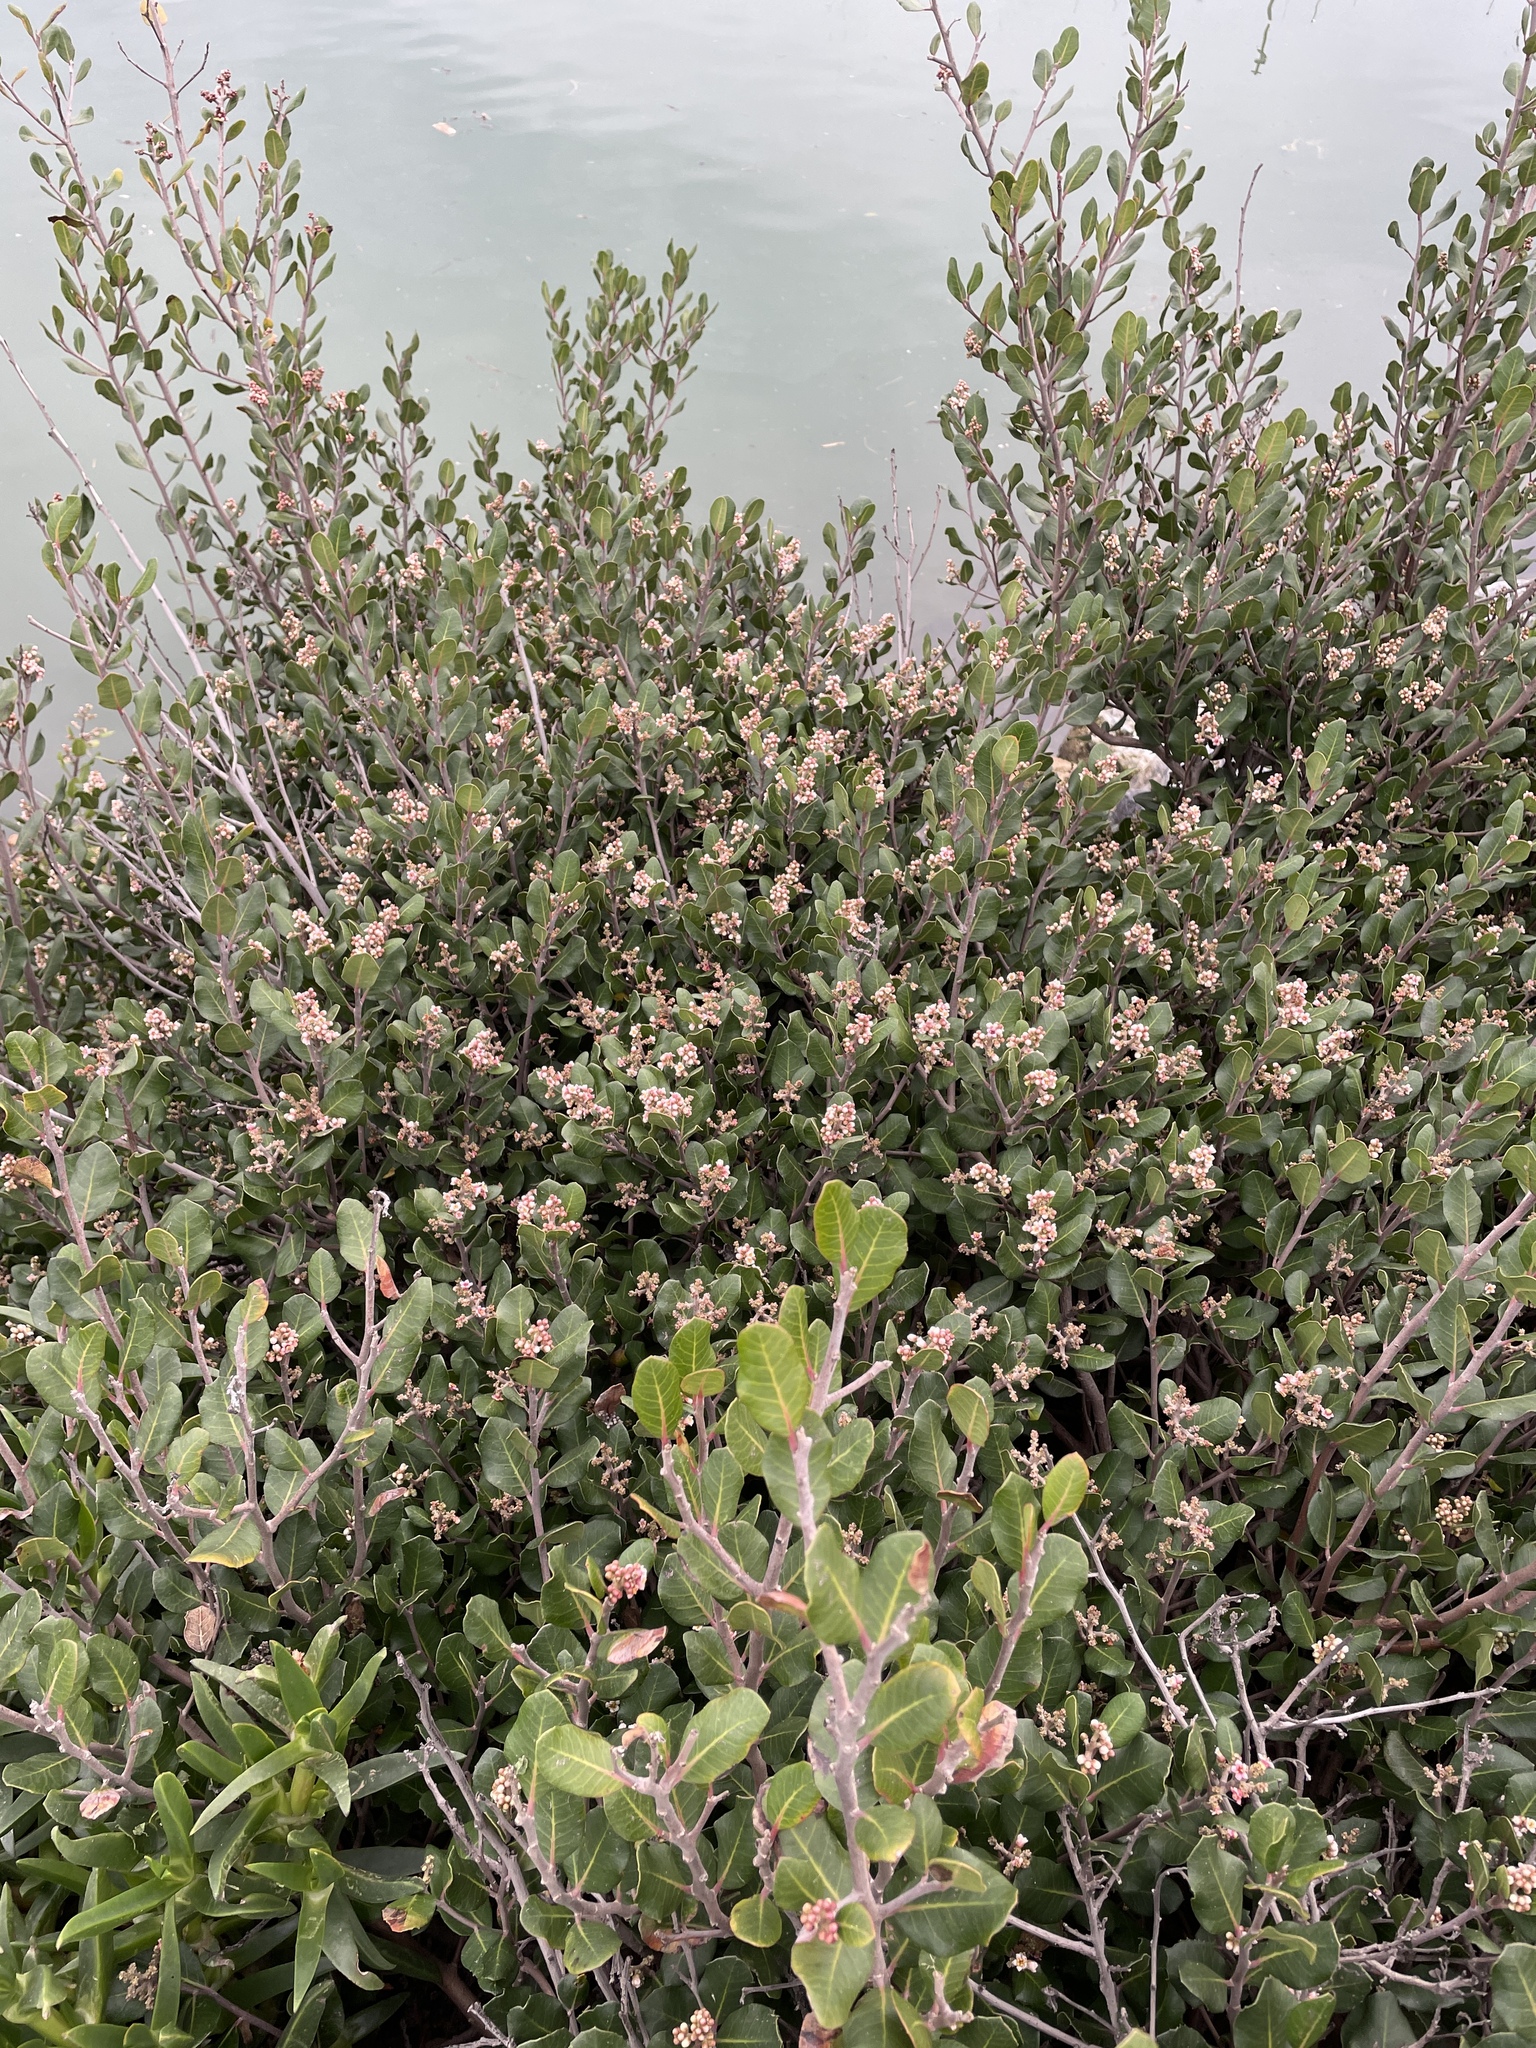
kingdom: Plantae
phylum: Tracheophyta
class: Magnoliopsida
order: Sapindales
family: Anacardiaceae
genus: Rhus
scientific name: Rhus integrifolia
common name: Lemonade sumac
